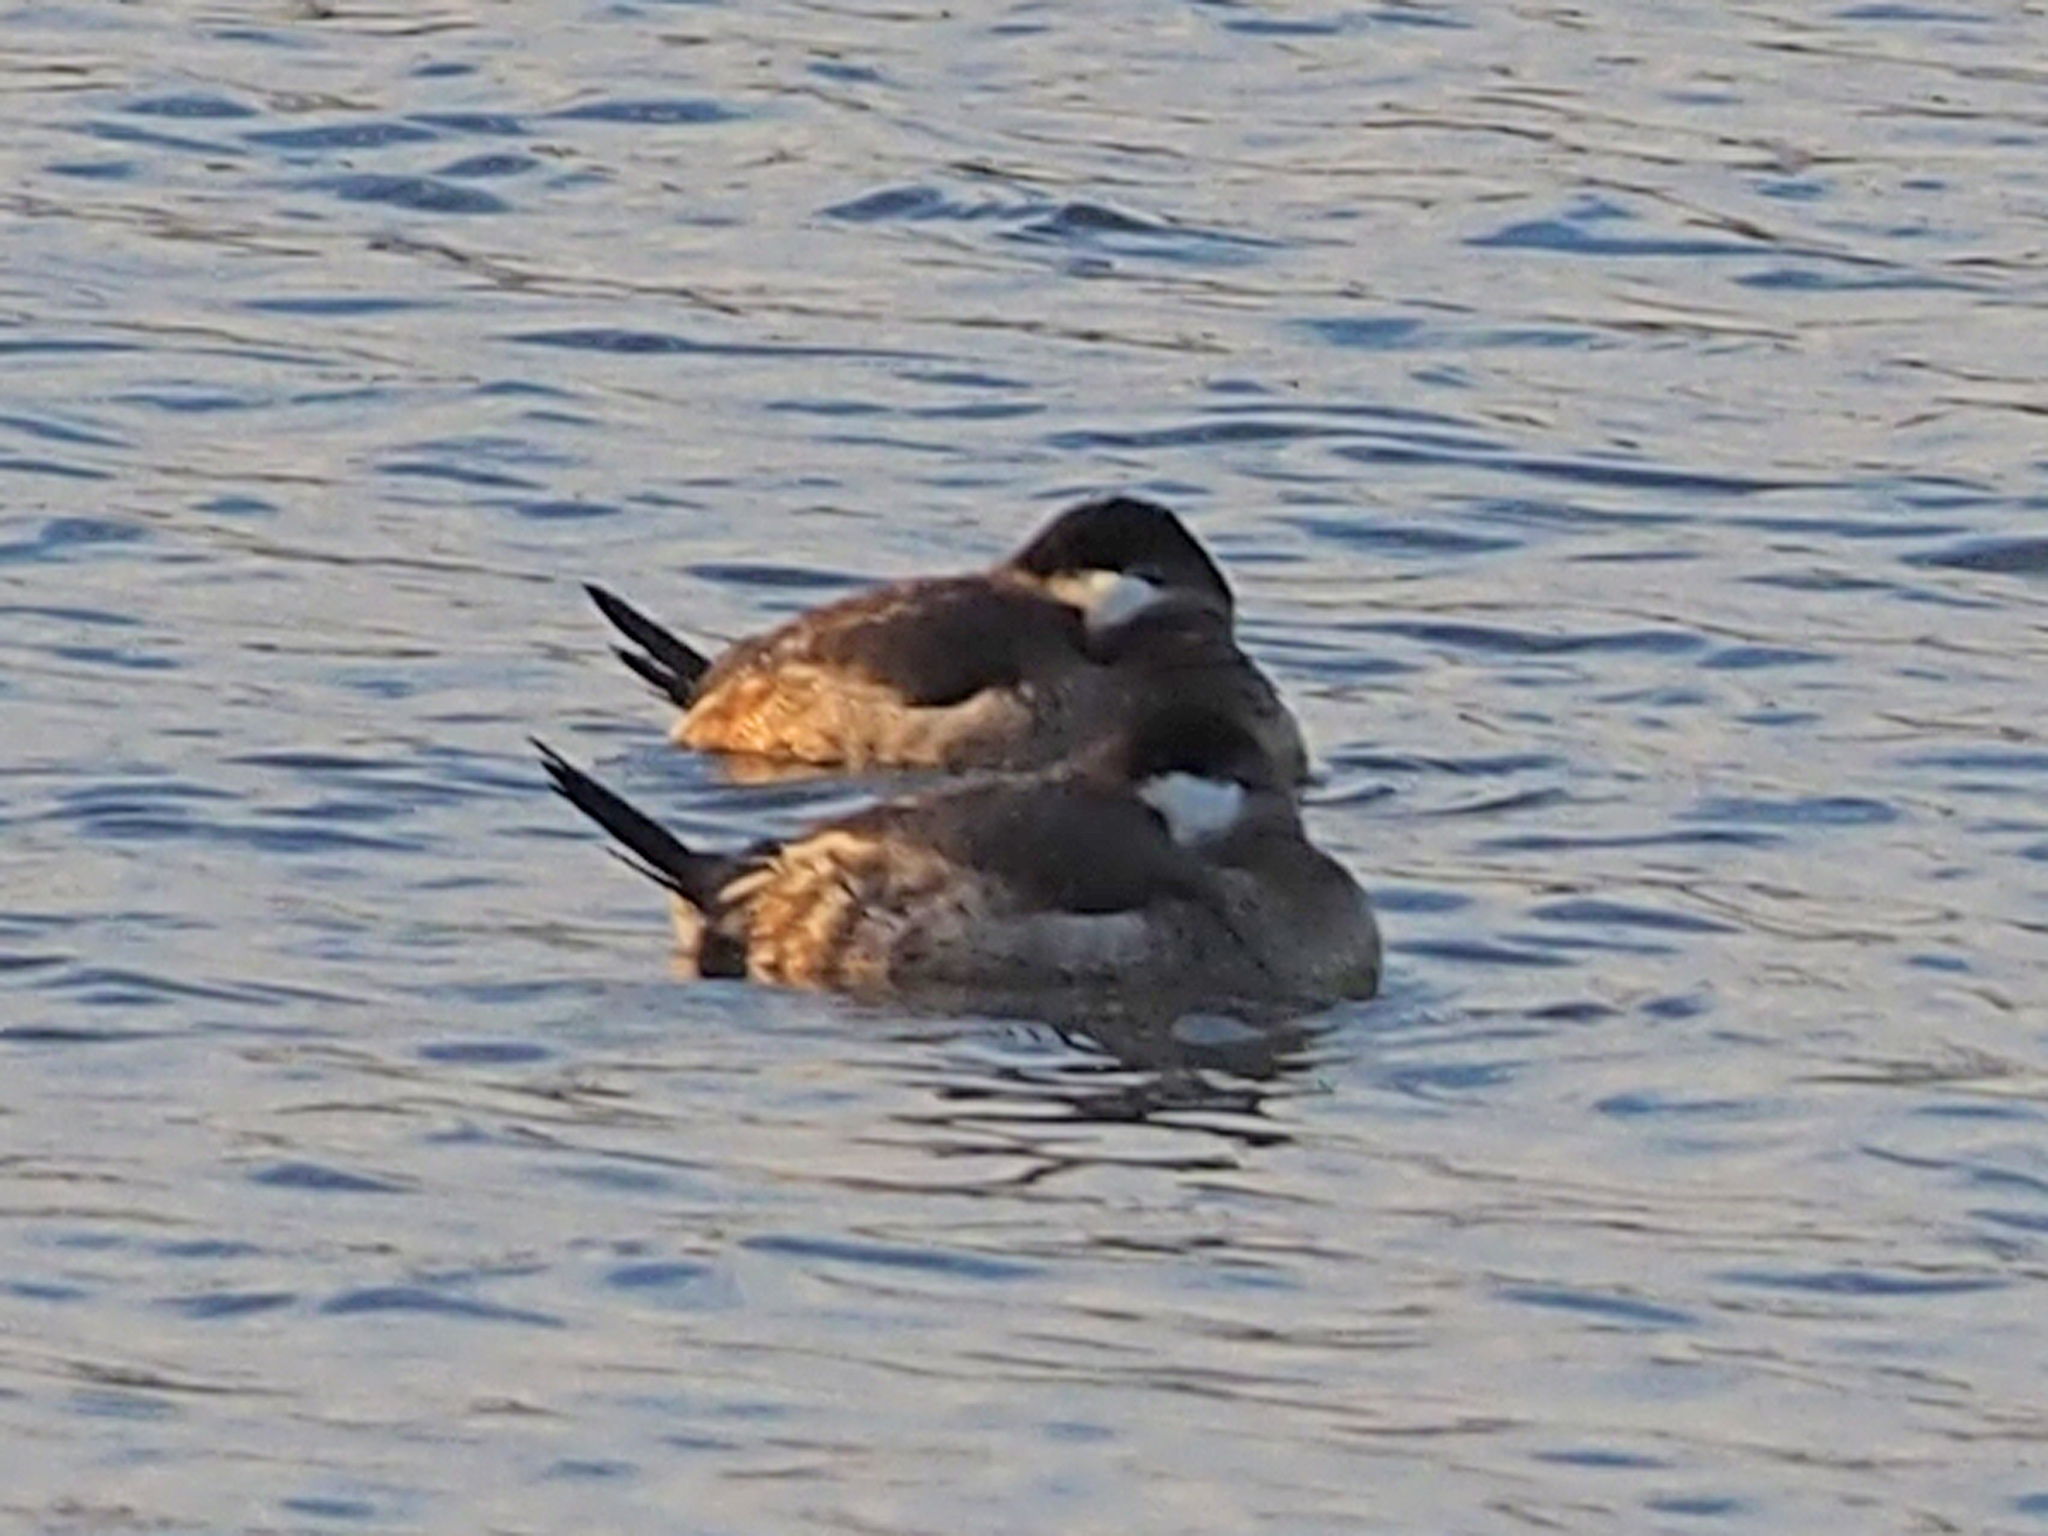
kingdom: Animalia
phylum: Chordata
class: Aves
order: Anseriformes
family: Anatidae
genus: Oxyura
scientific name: Oxyura jamaicensis
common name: Ruddy duck
